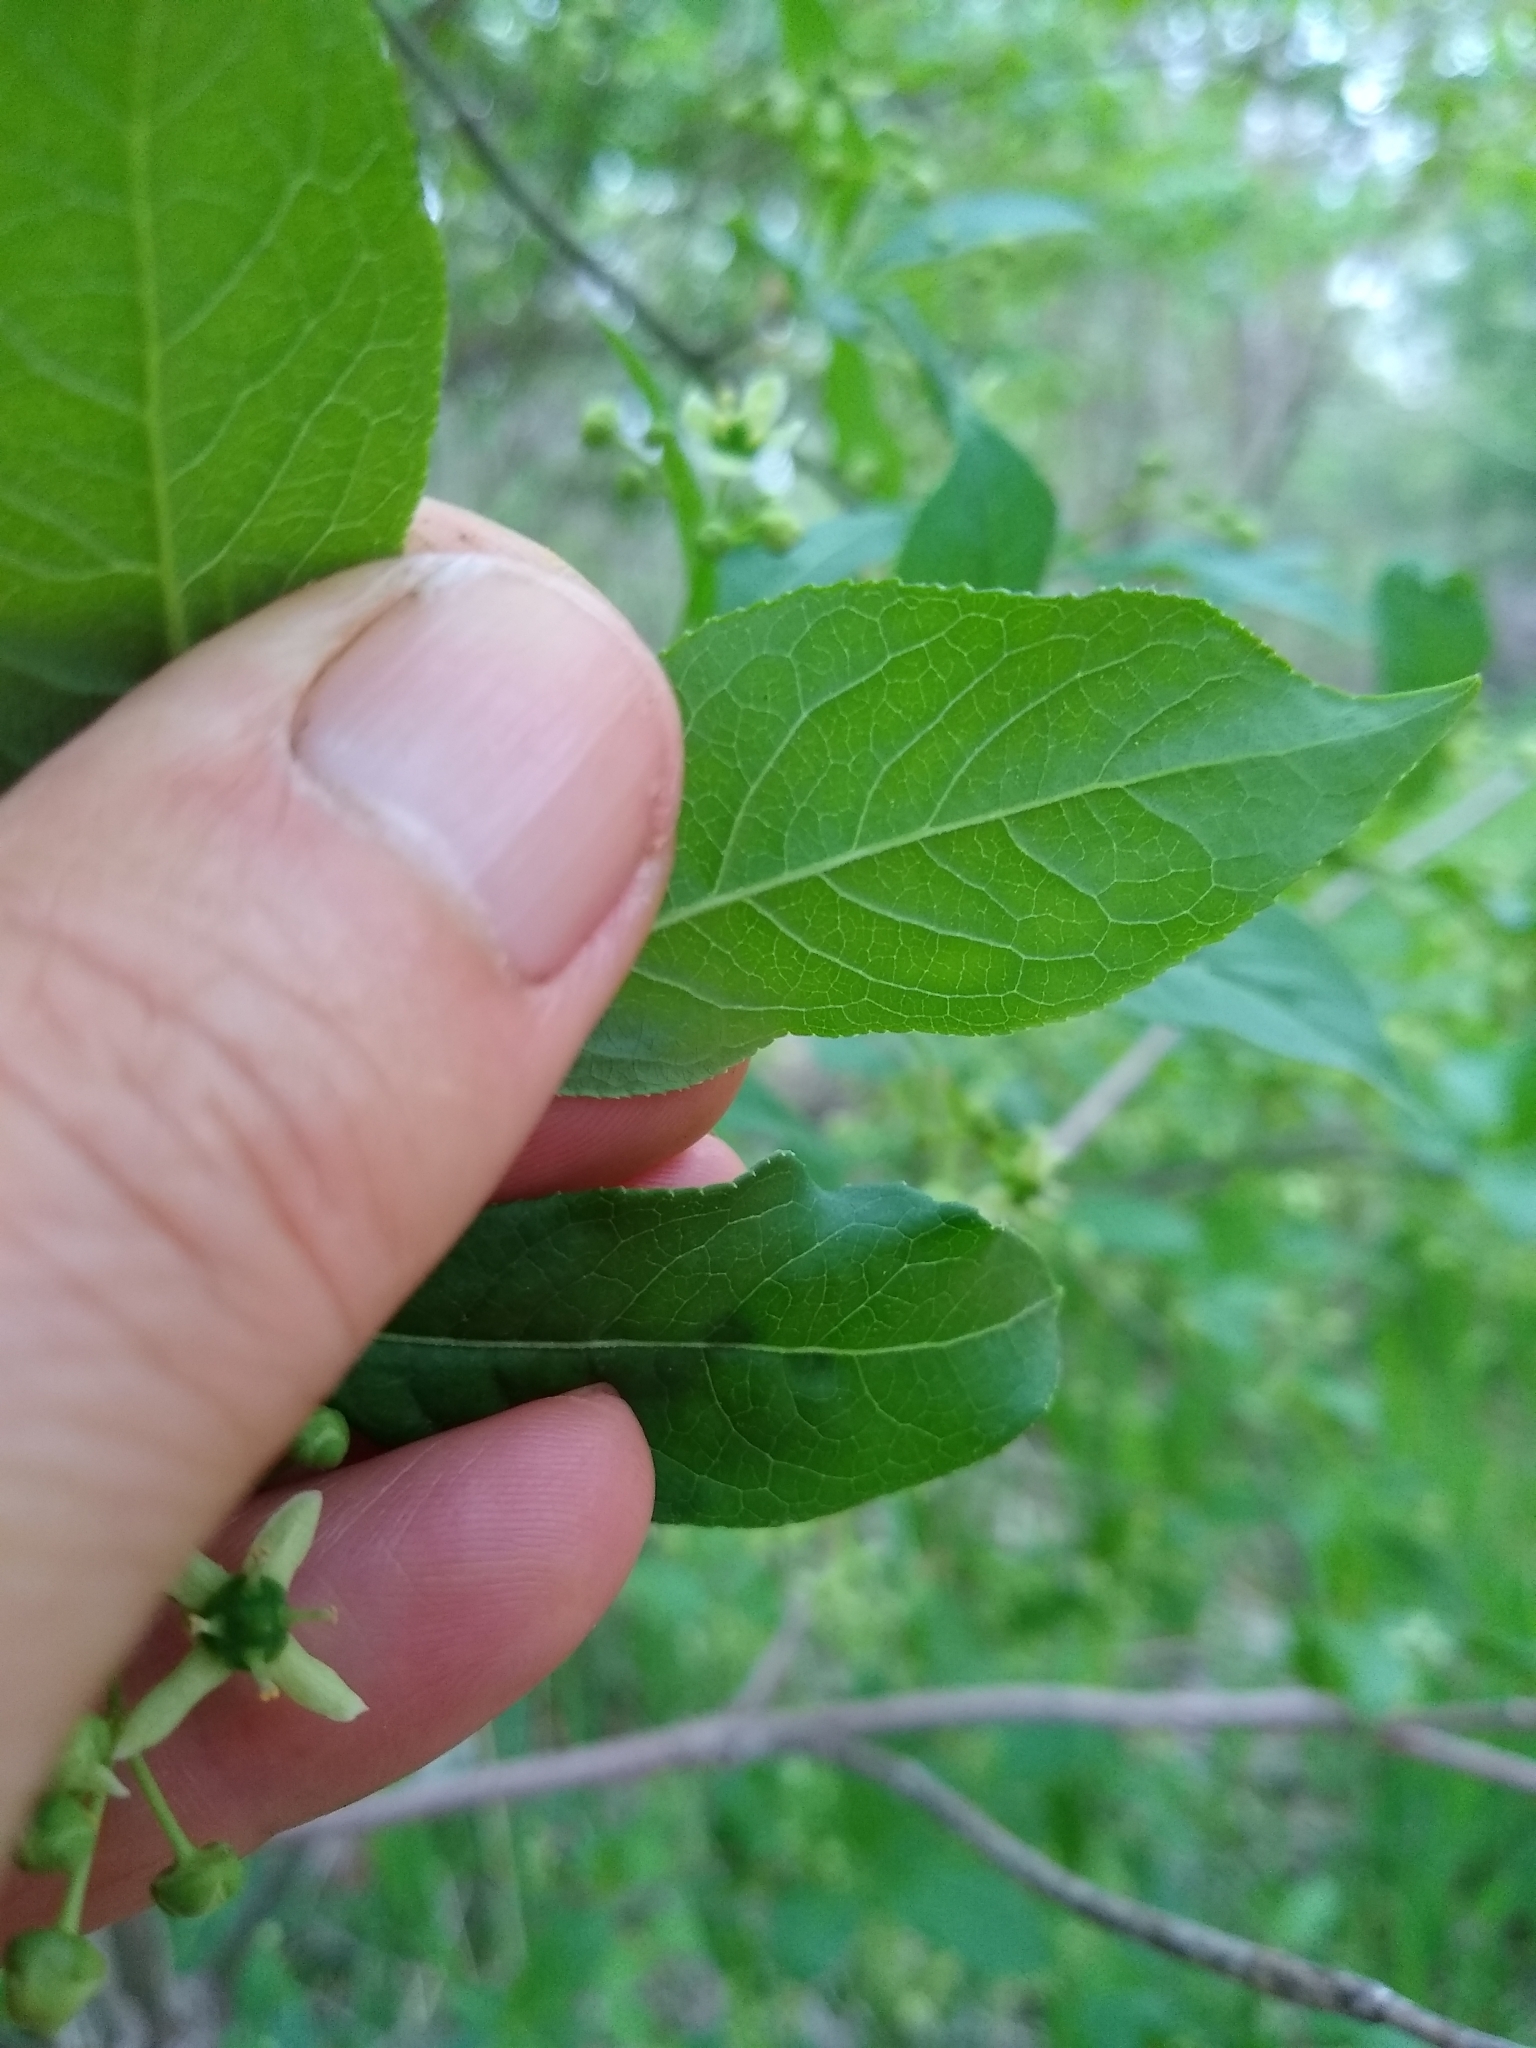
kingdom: Plantae
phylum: Tracheophyta
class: Magnoliopsida
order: Celastrales
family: Celastraceae
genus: Euonymus
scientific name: Euonymus europaeus
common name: Spindle
